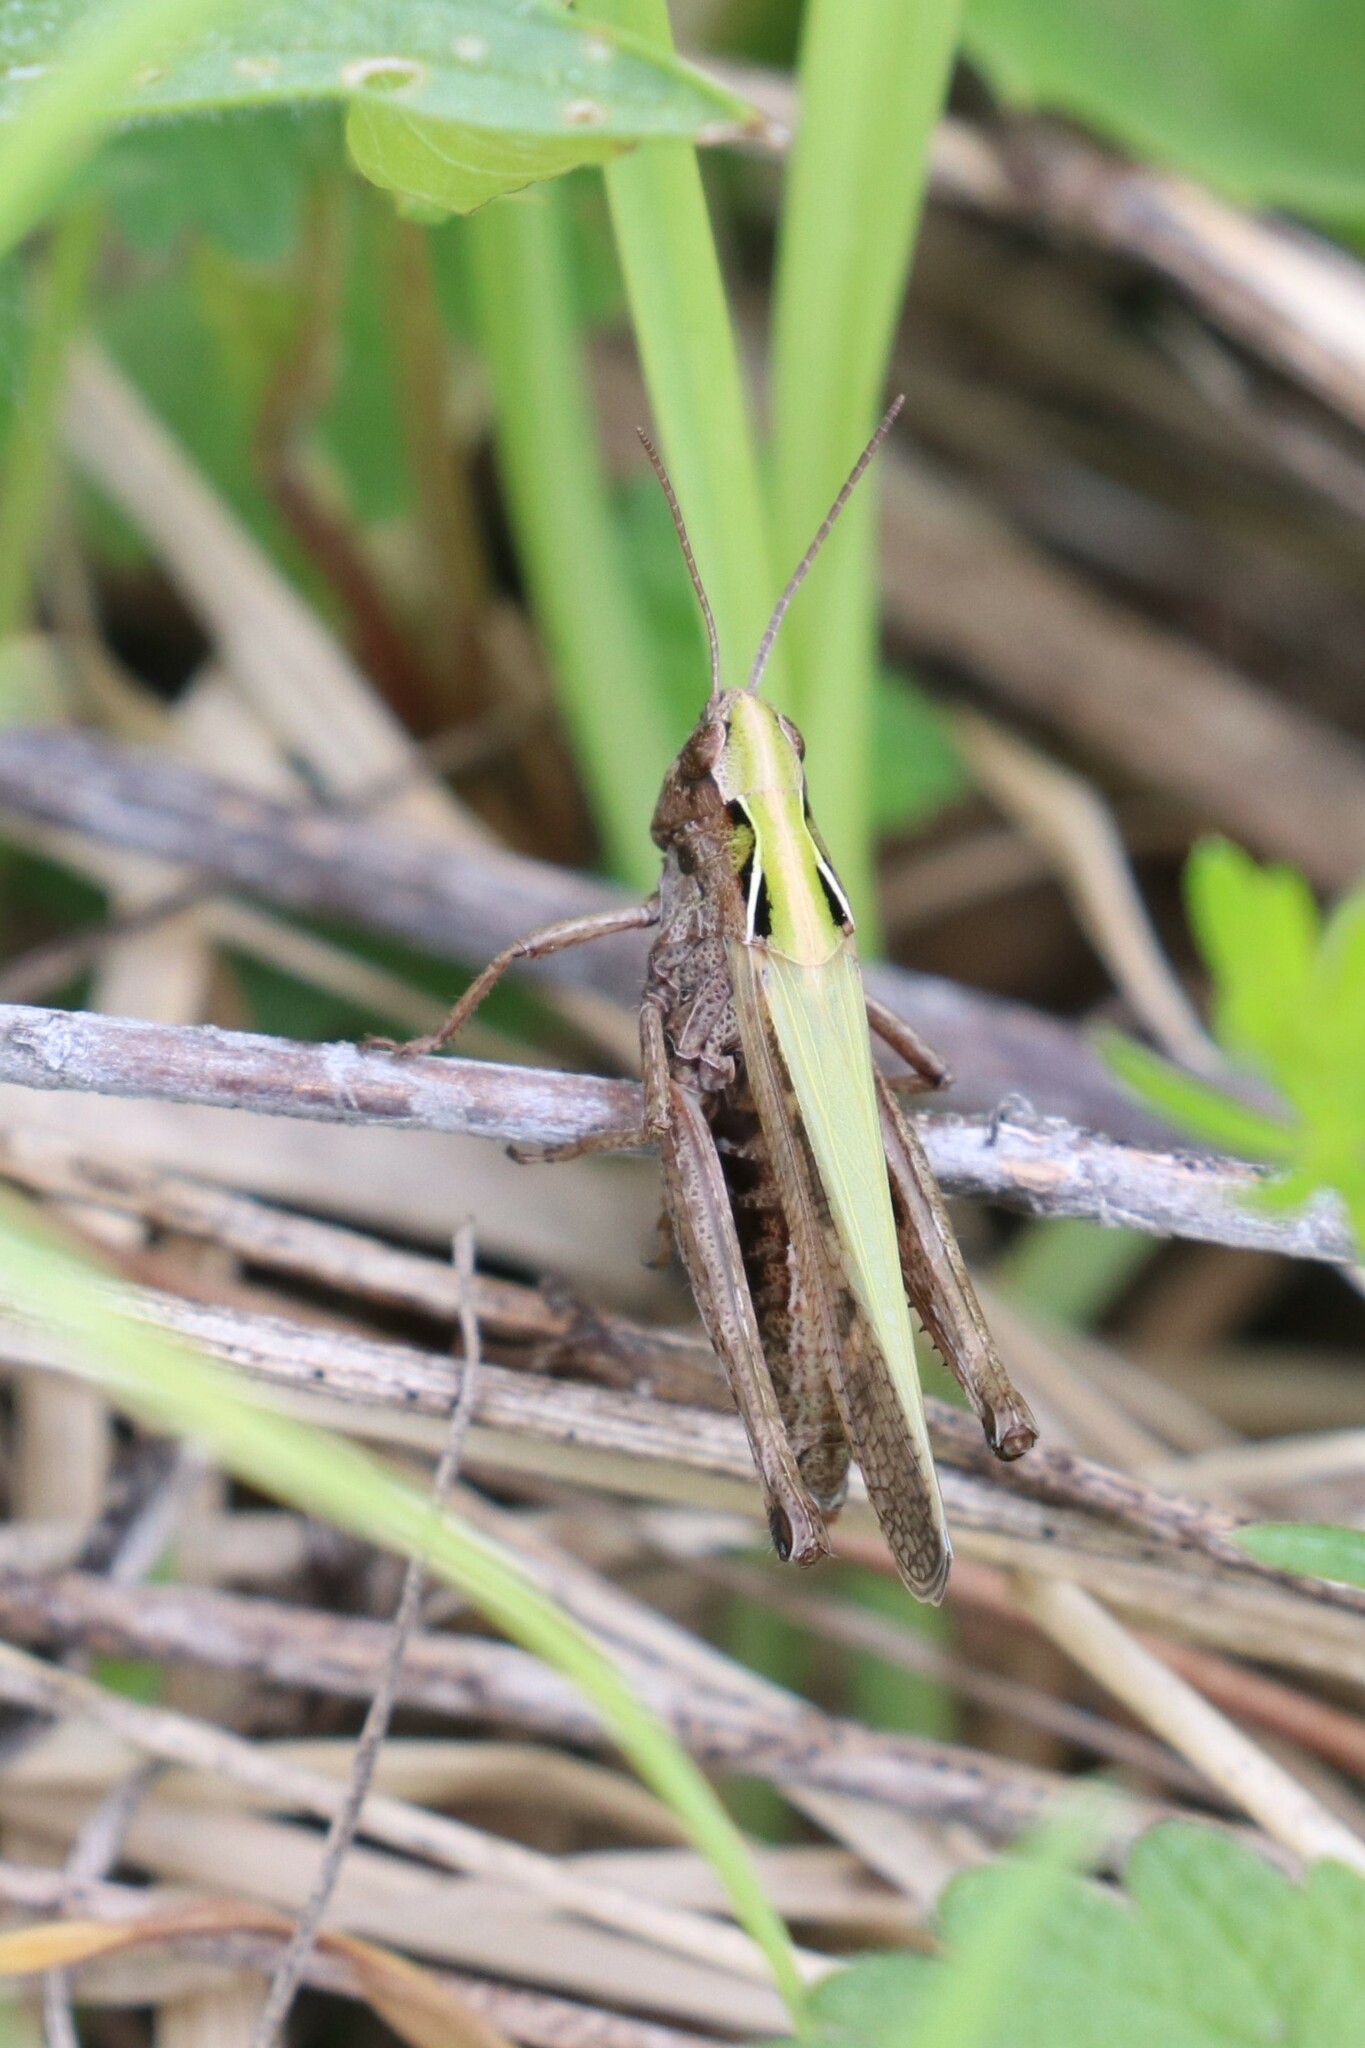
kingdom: Animalia
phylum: Arthropoda
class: Insecta
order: Orthoptera
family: Acrididae
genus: Omocestus
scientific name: Omocestus viridulus
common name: Common green grasshopper
